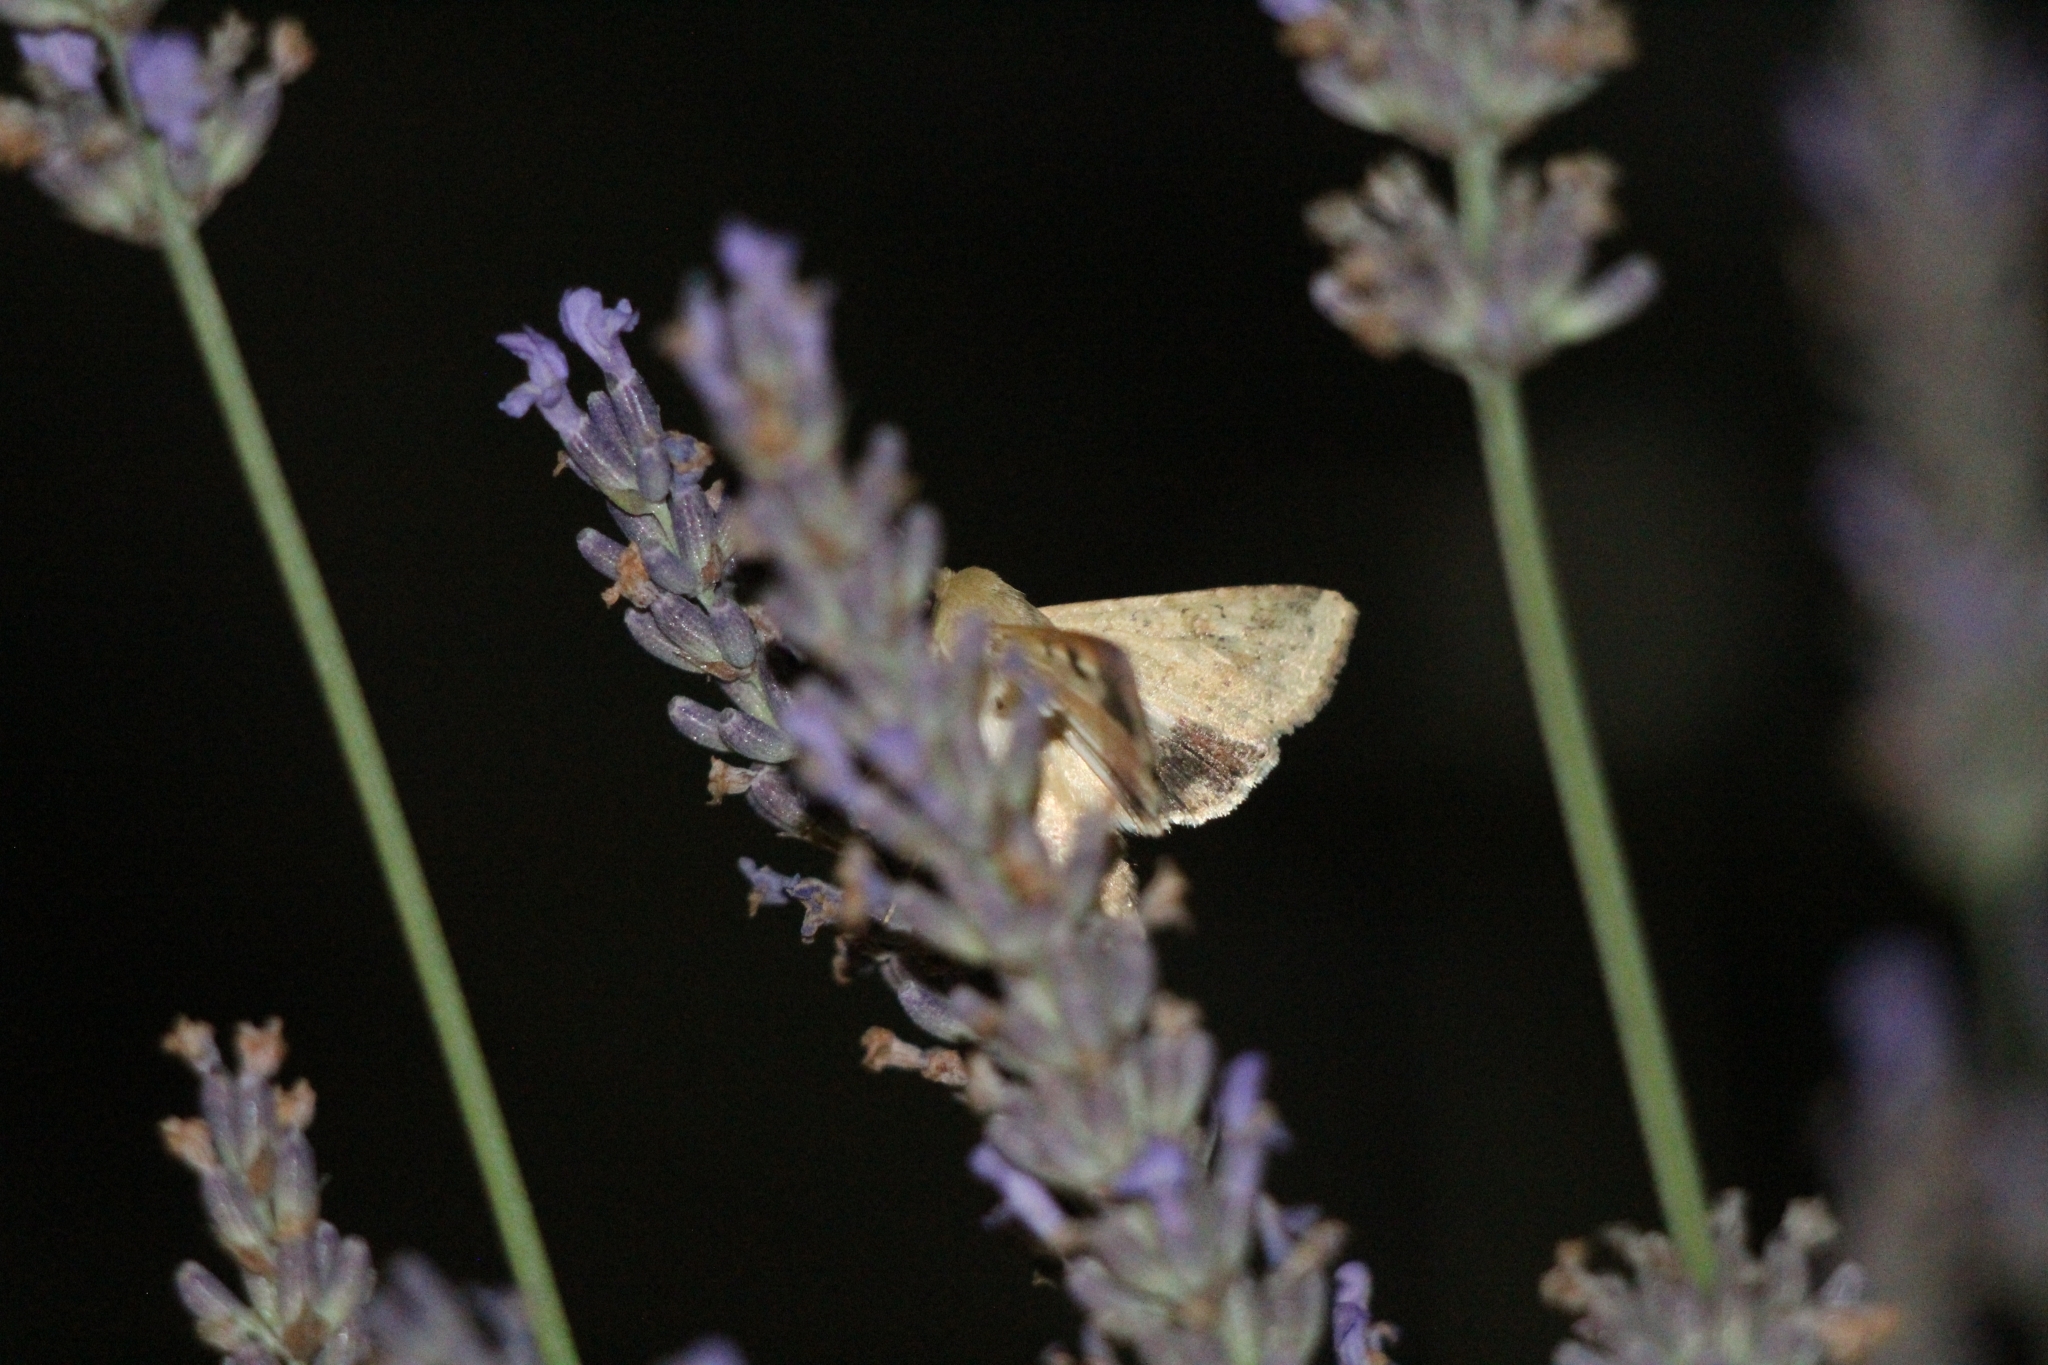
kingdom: Animalia
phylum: Arthropoda
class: Insecta
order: Lepidoptera
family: Noctuidae
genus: Helicoverpa
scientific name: Helicoverpa armigera
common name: Cotton bollworm
